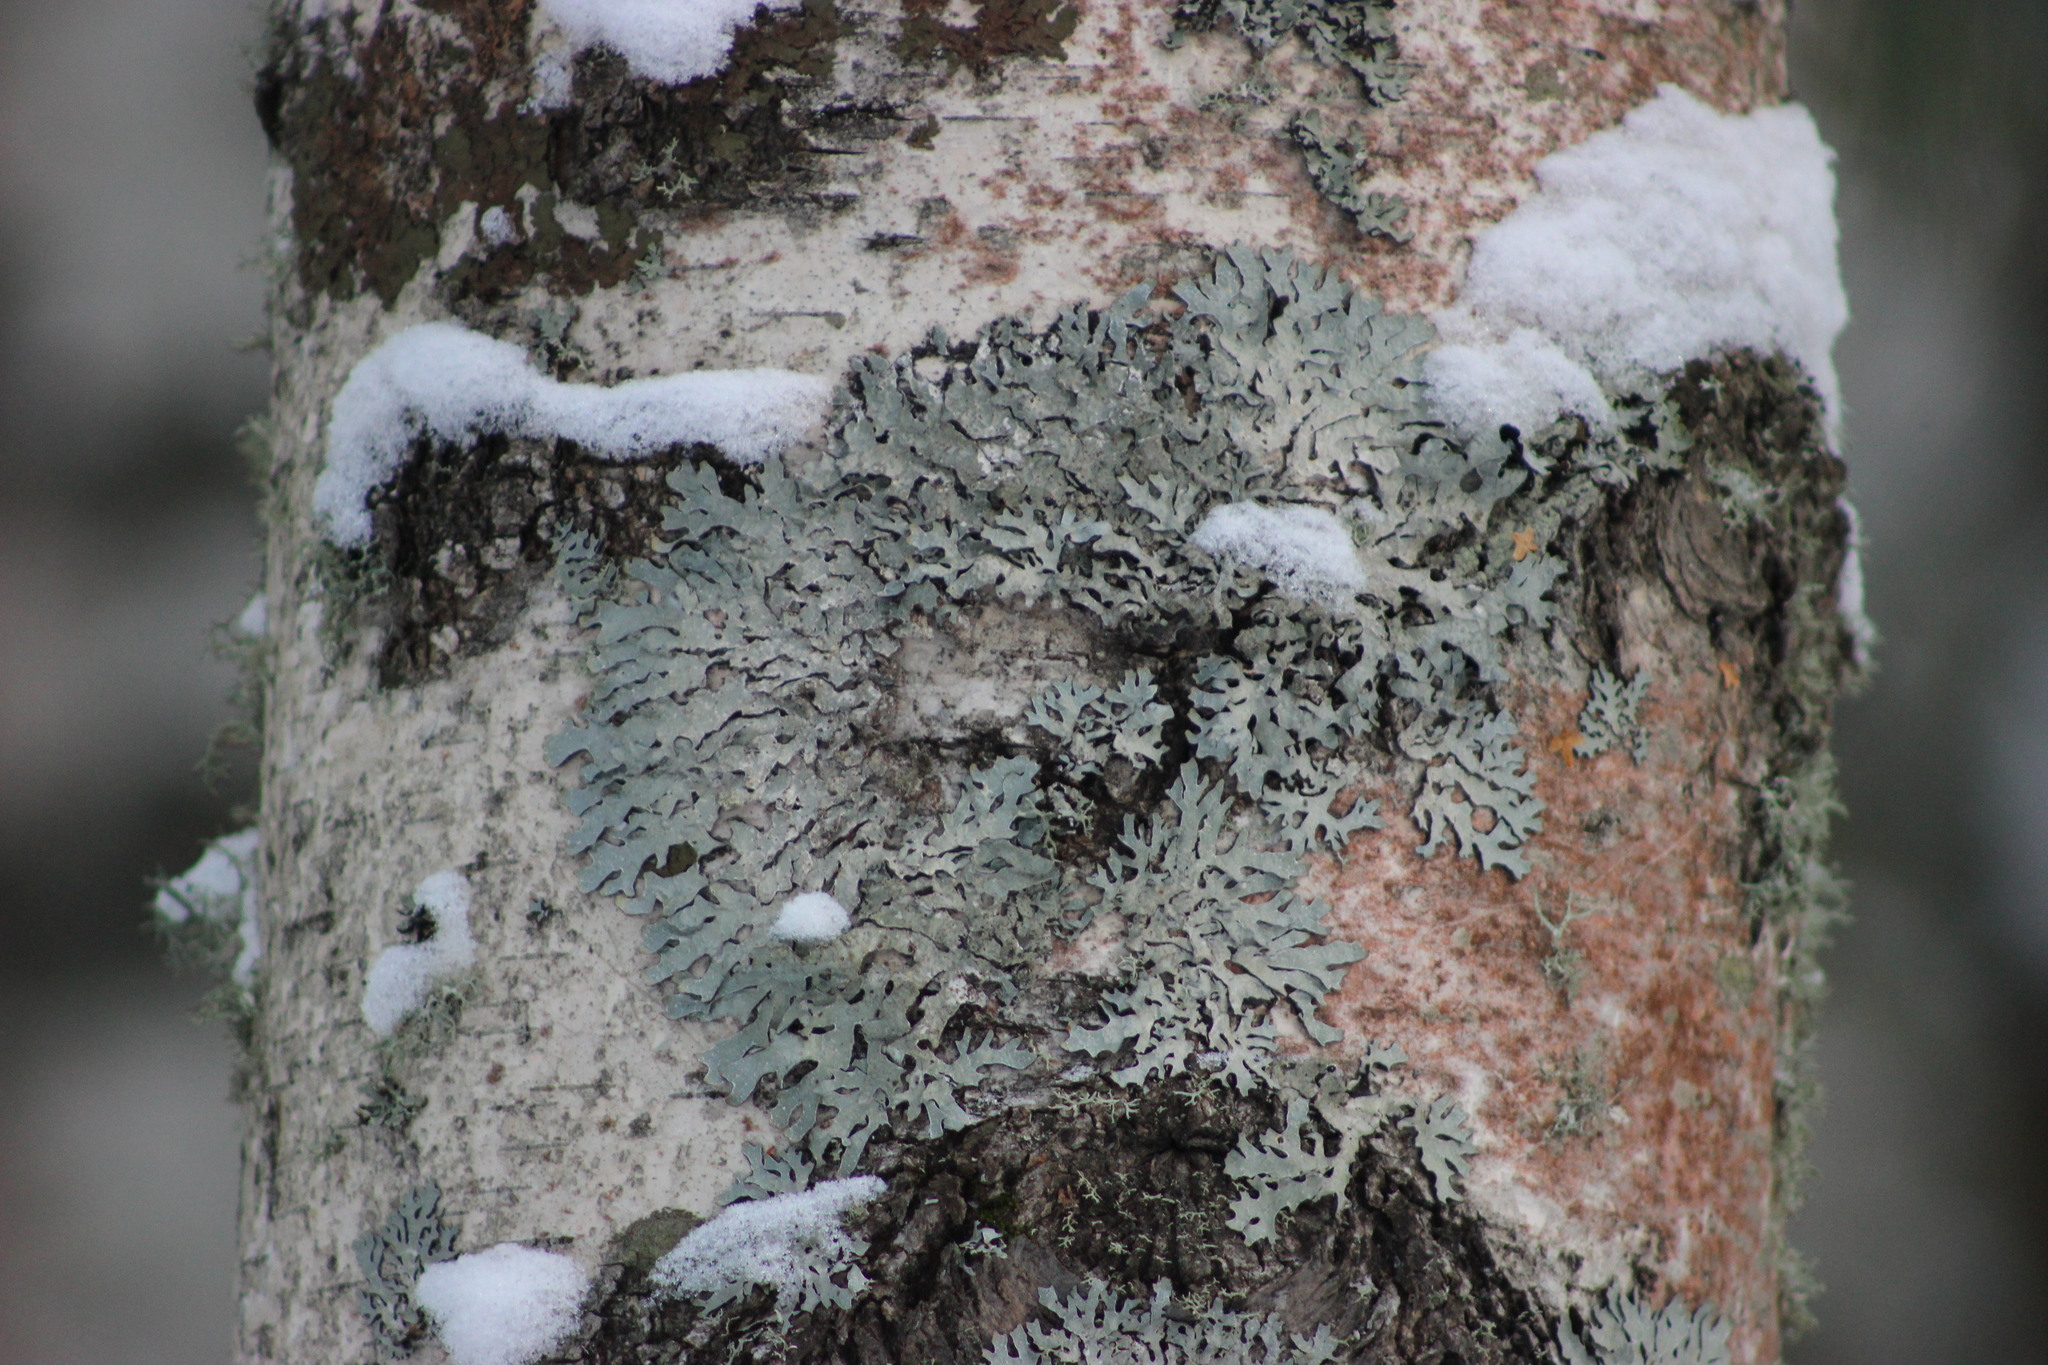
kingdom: Fungi
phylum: Ascomycota
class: Lecanoromycetes
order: Lecanorales
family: Parmeliaceae
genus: Parmelia
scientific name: Parmelia sulcata
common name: Netted shield lichen
